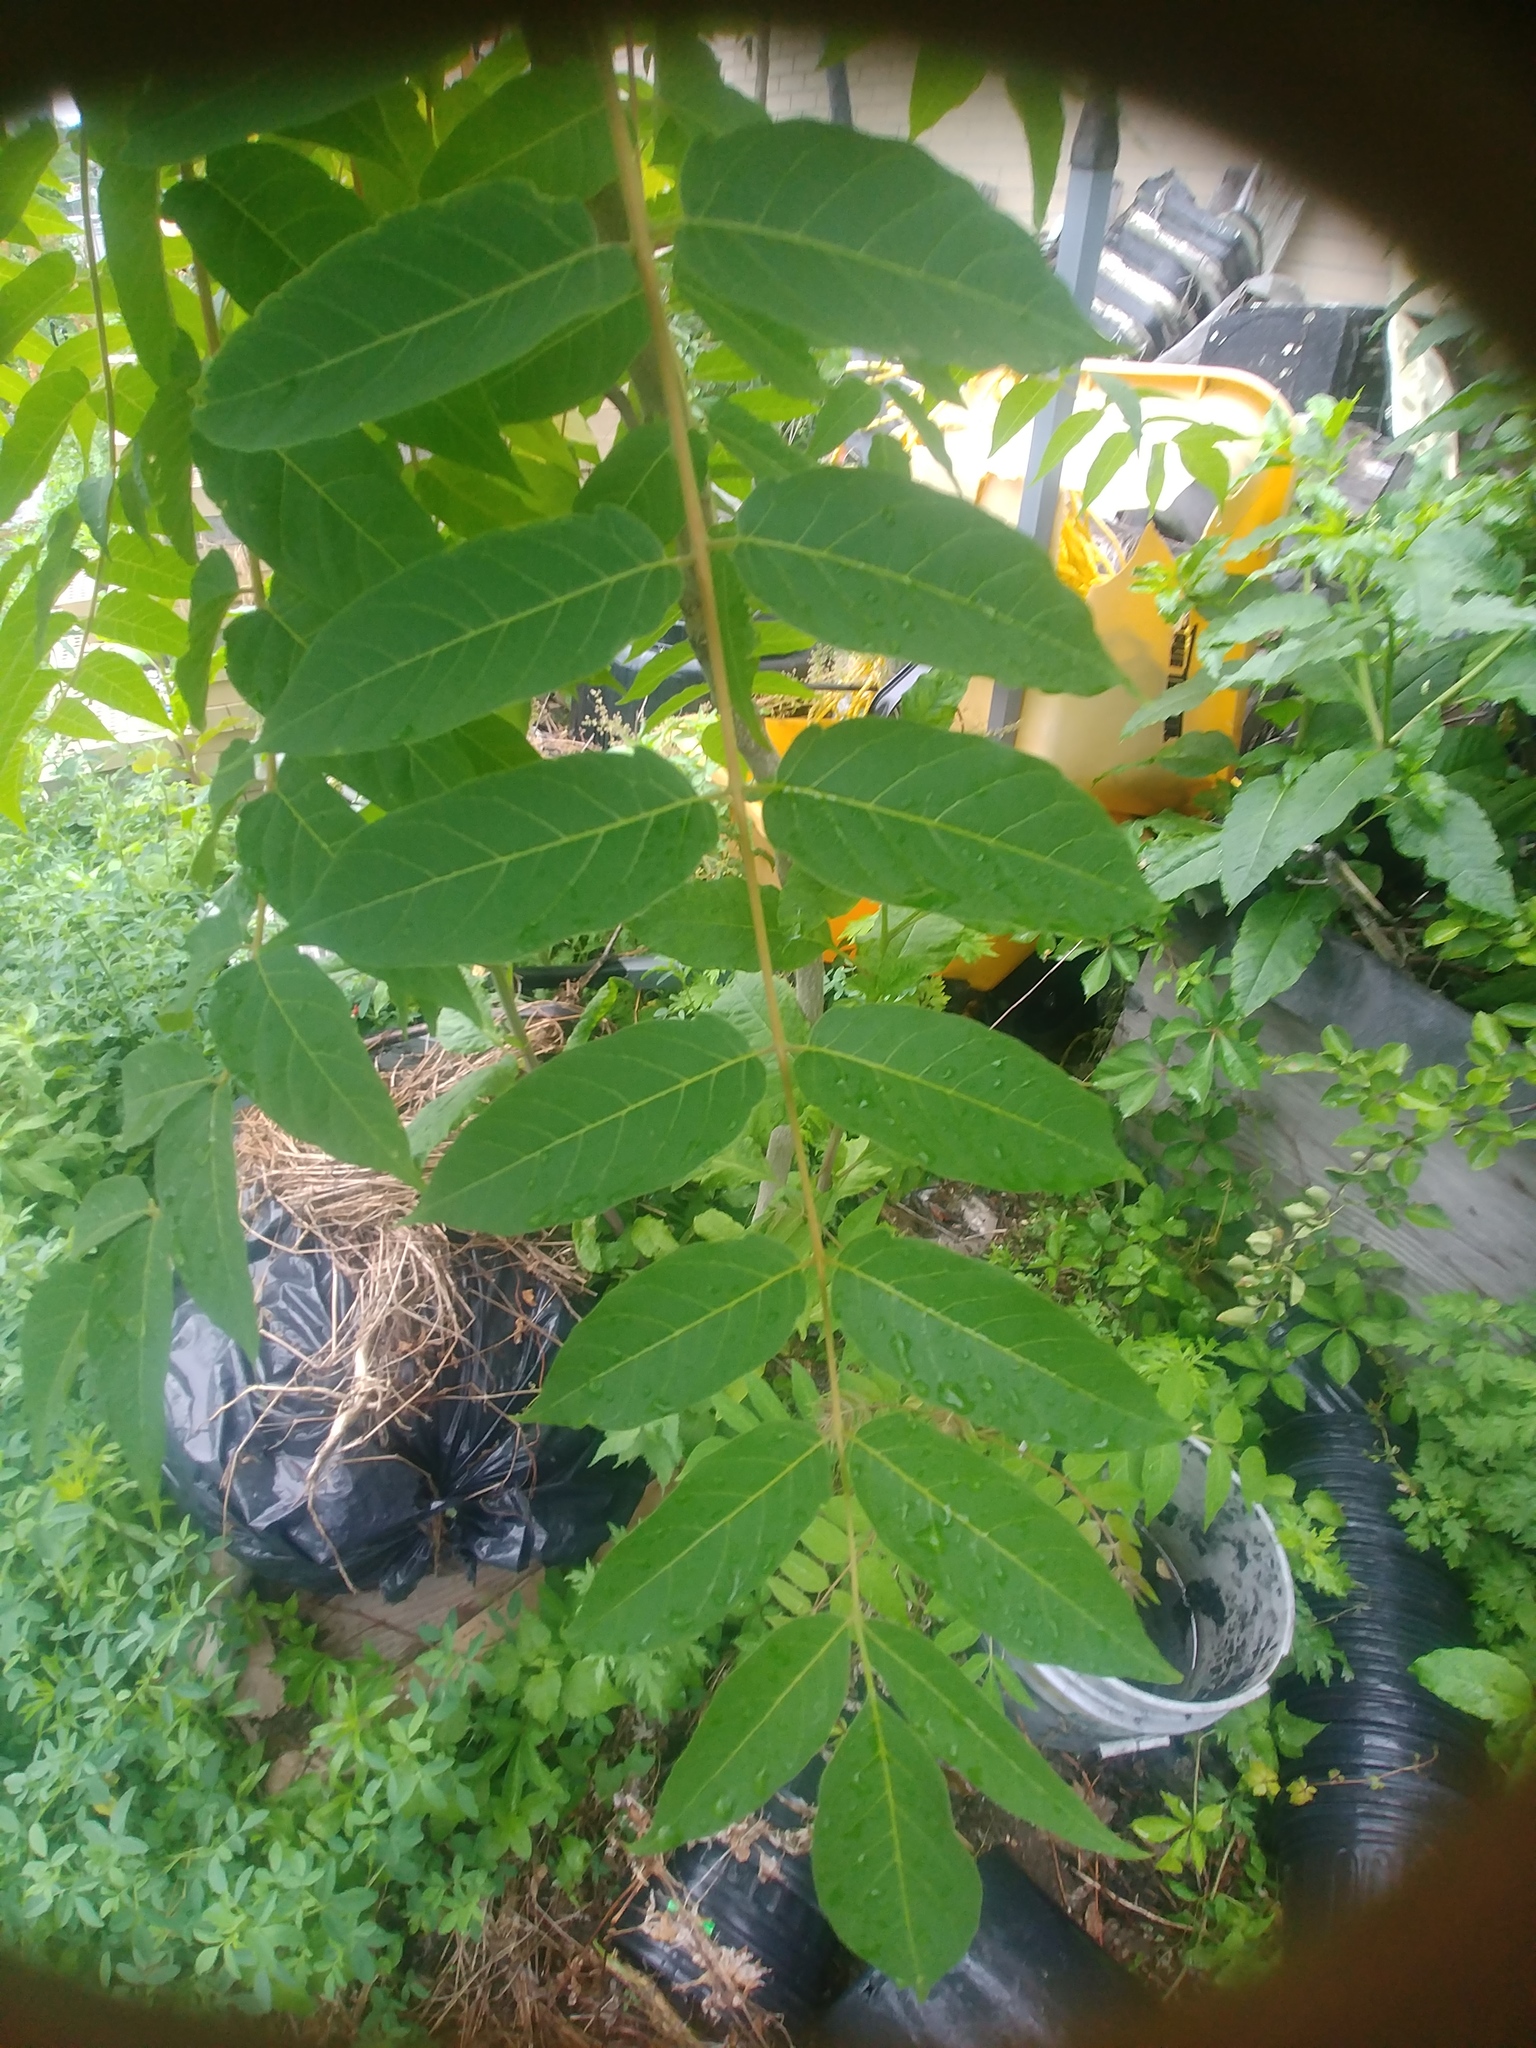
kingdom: Plantae
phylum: Tracheophyta
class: Magnoliopsida
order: Sapindales
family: Simaroubaceae
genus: Ailanthus
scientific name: Ailanthus altissima
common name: Tree-of-heaven
